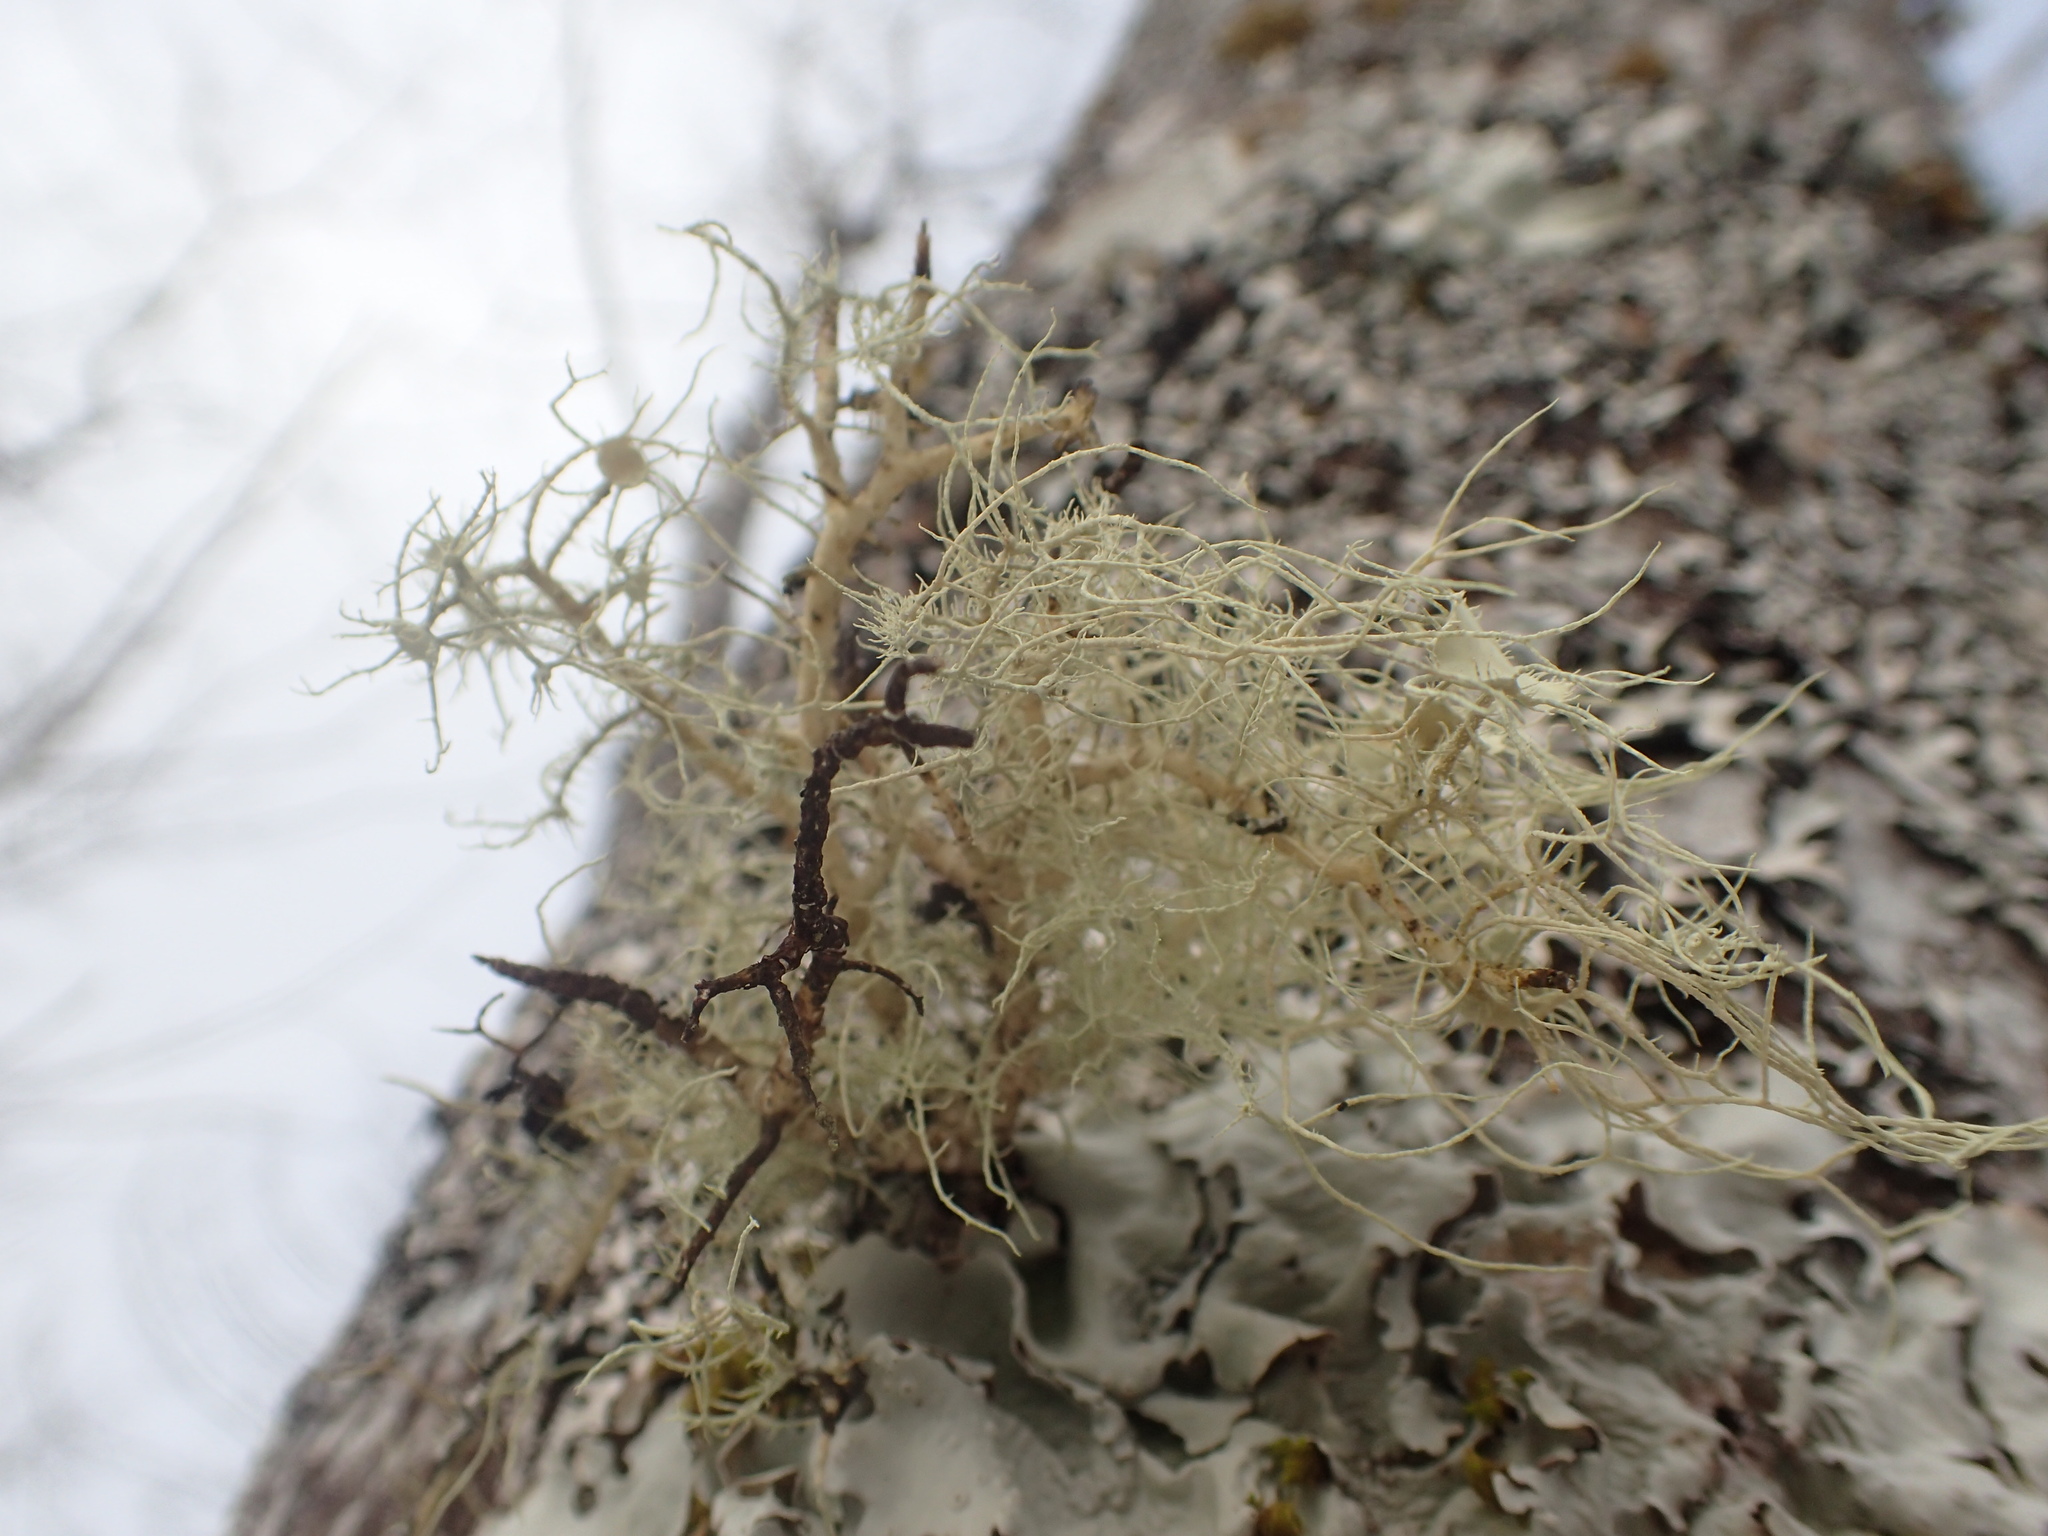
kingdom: Fungi
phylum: Ascomycota
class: Lecanoromycetes
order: Lecanorales
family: Parmeliaceae
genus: Usnea
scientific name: Usnea strigosa
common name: Bushy beard lichen
